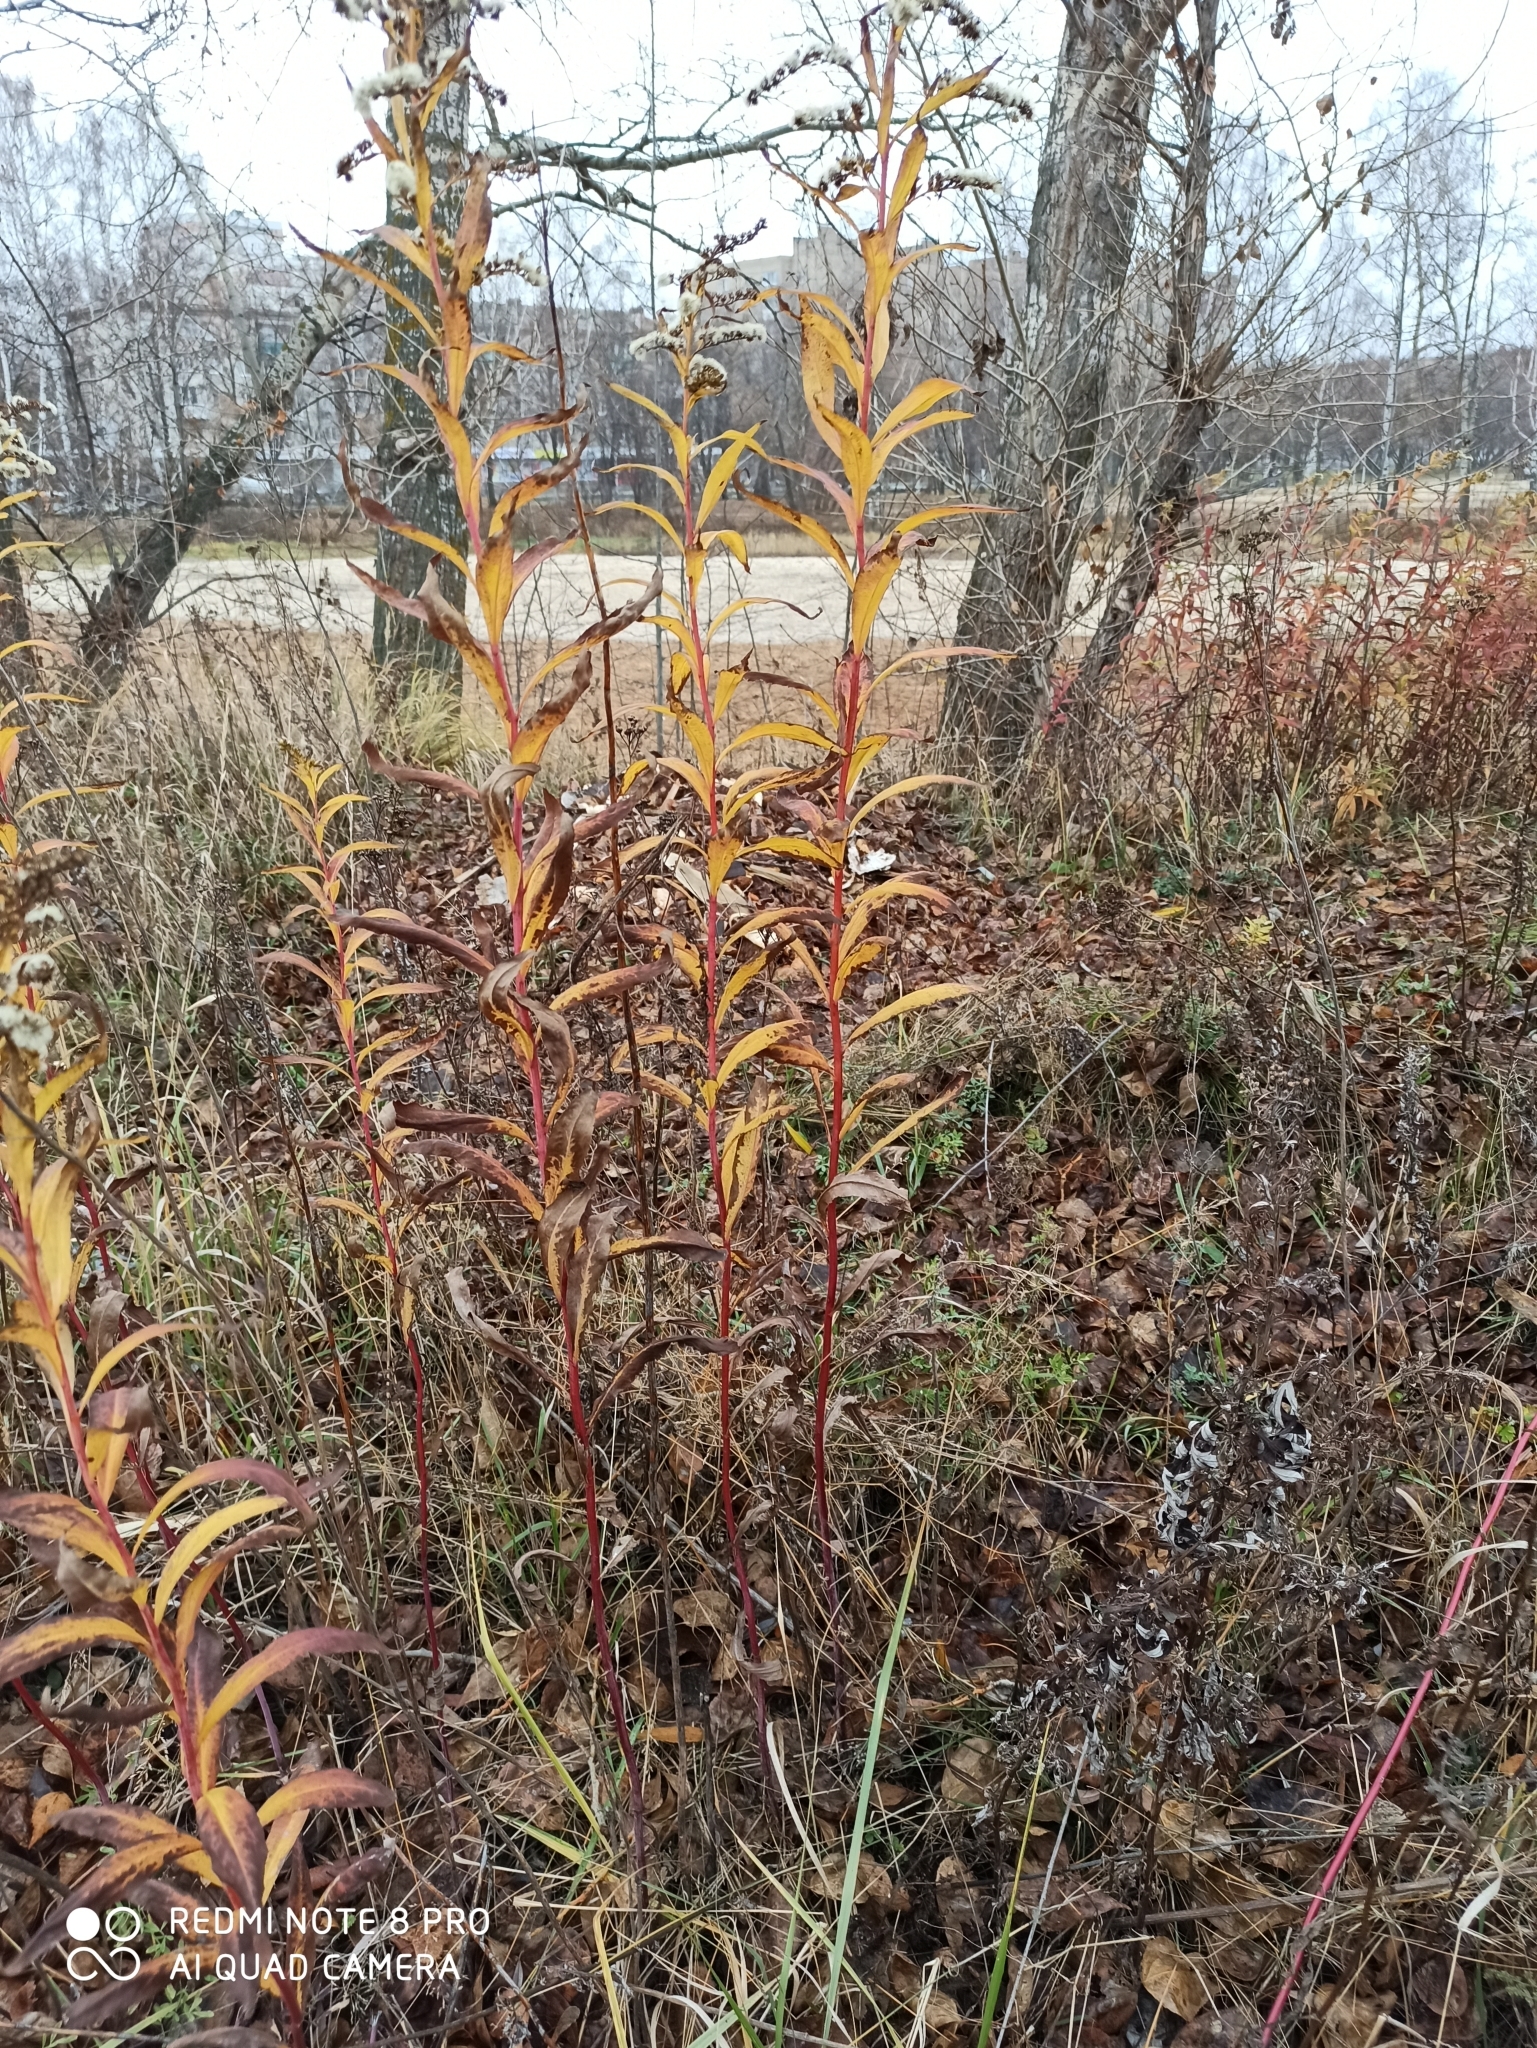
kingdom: Plantae
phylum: Tracheophyta
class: Magnoliopsida
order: Asterales
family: Asteraceae
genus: Solidago
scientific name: Solidago gigantea
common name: Giant goldenrod
